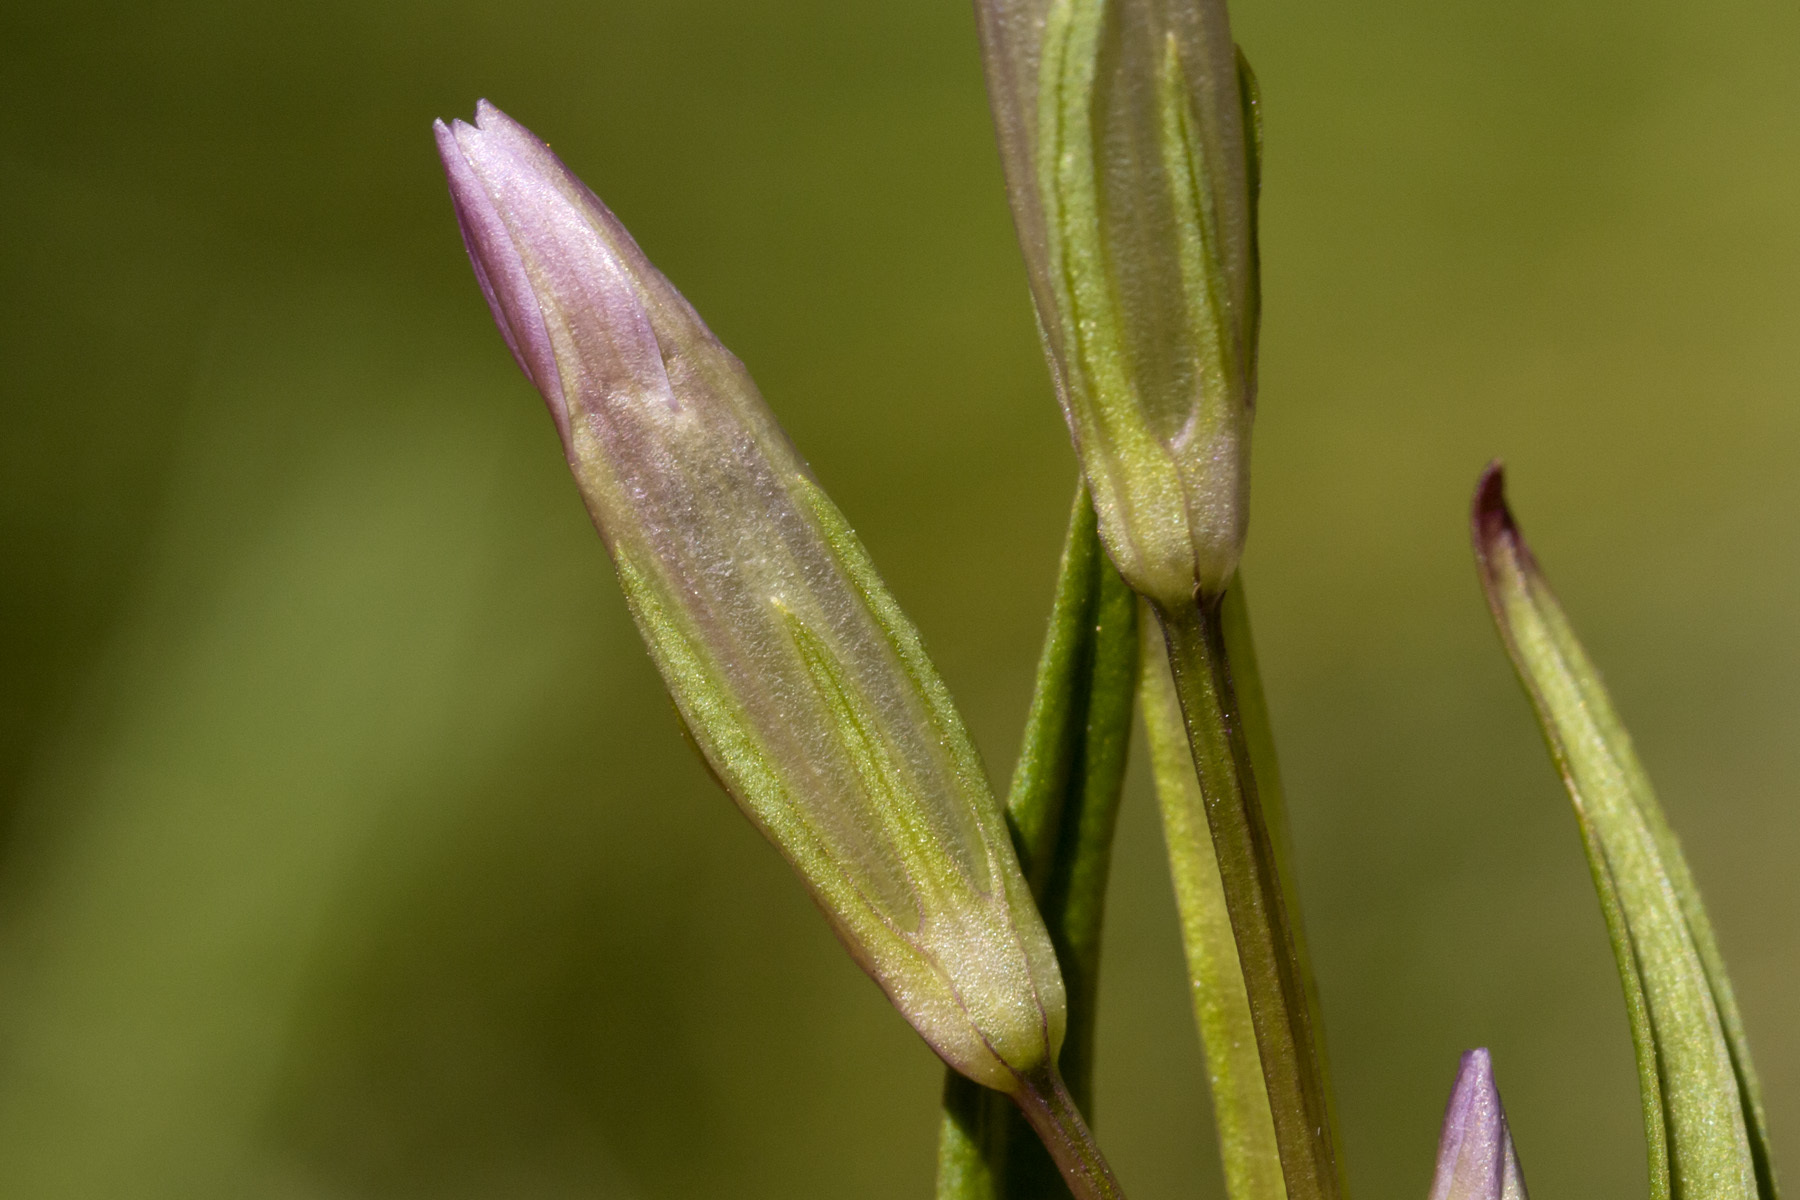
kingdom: Plantae
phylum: Tracheophyta
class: Magnoliopsida
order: Gentianales
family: Gentianaceae
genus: Gentianella
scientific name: Gentianella amarella
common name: Autumn gentian
